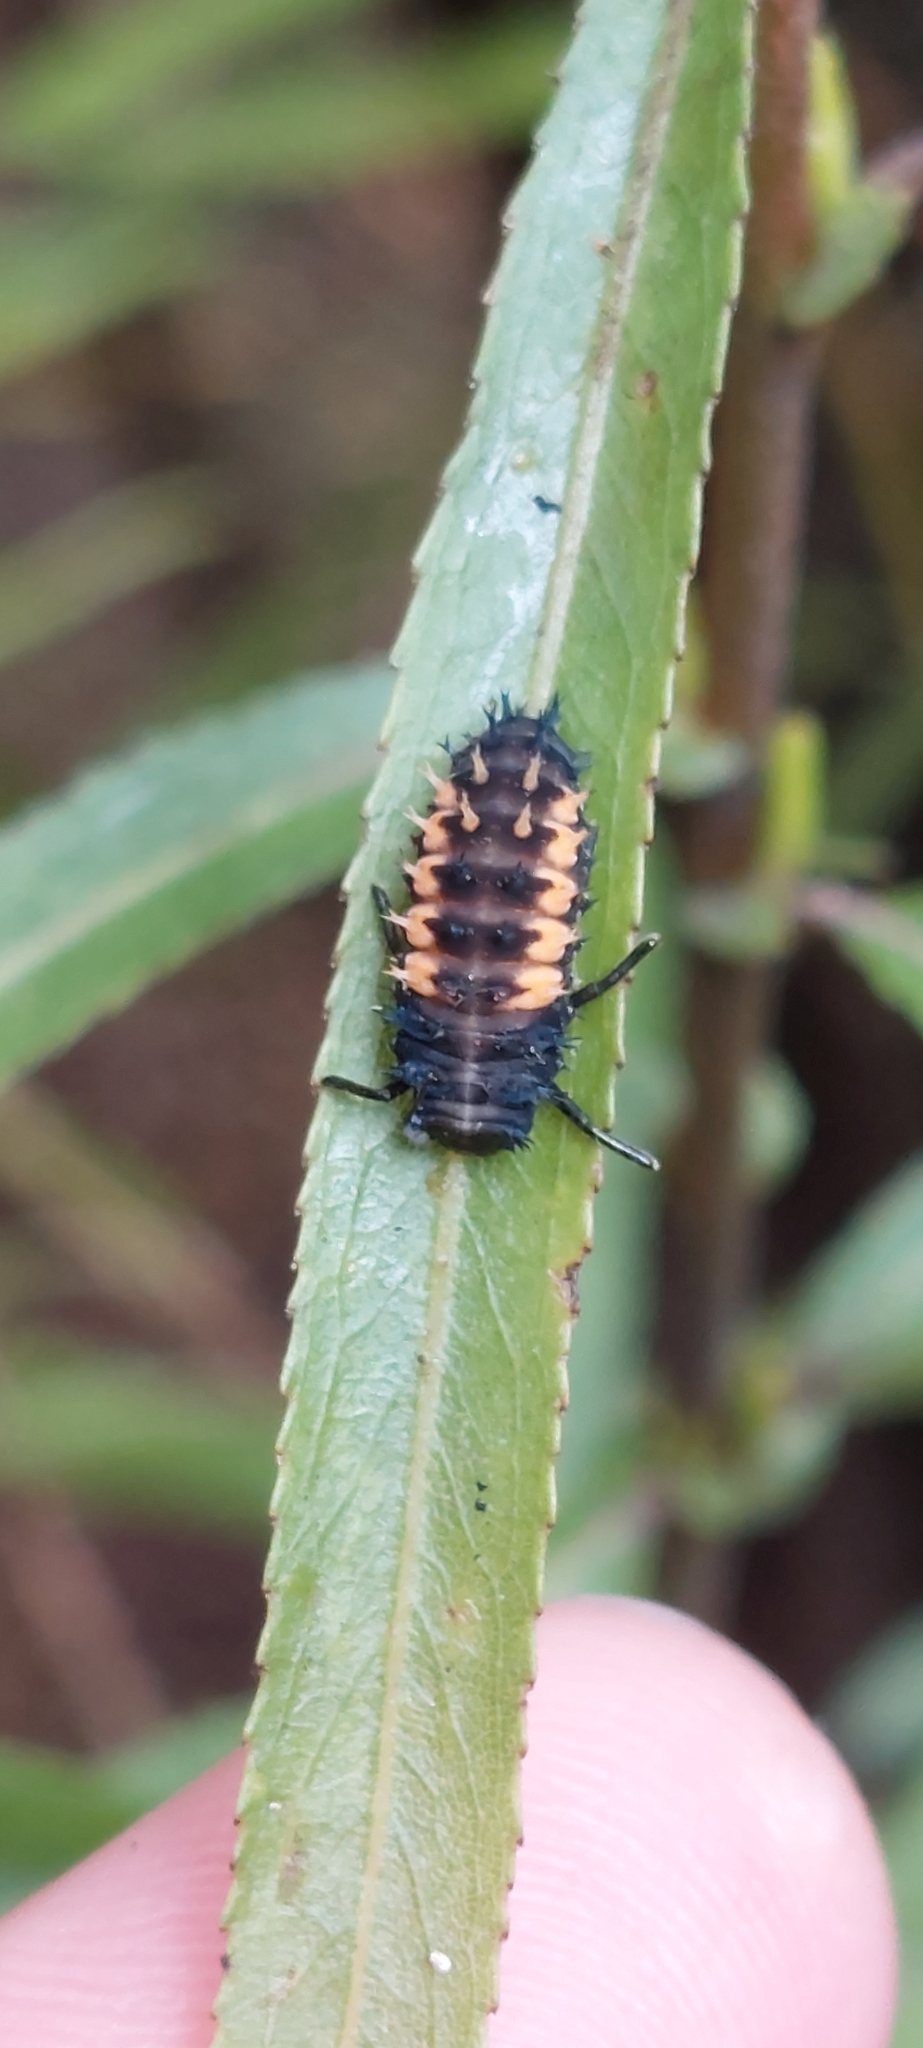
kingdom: Animalia
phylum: Arthropoda
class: Insecta
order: Coleoptera
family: Coccinellidae
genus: Harmonia
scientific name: Harmonia axyridis
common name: Harlequin ladybird
